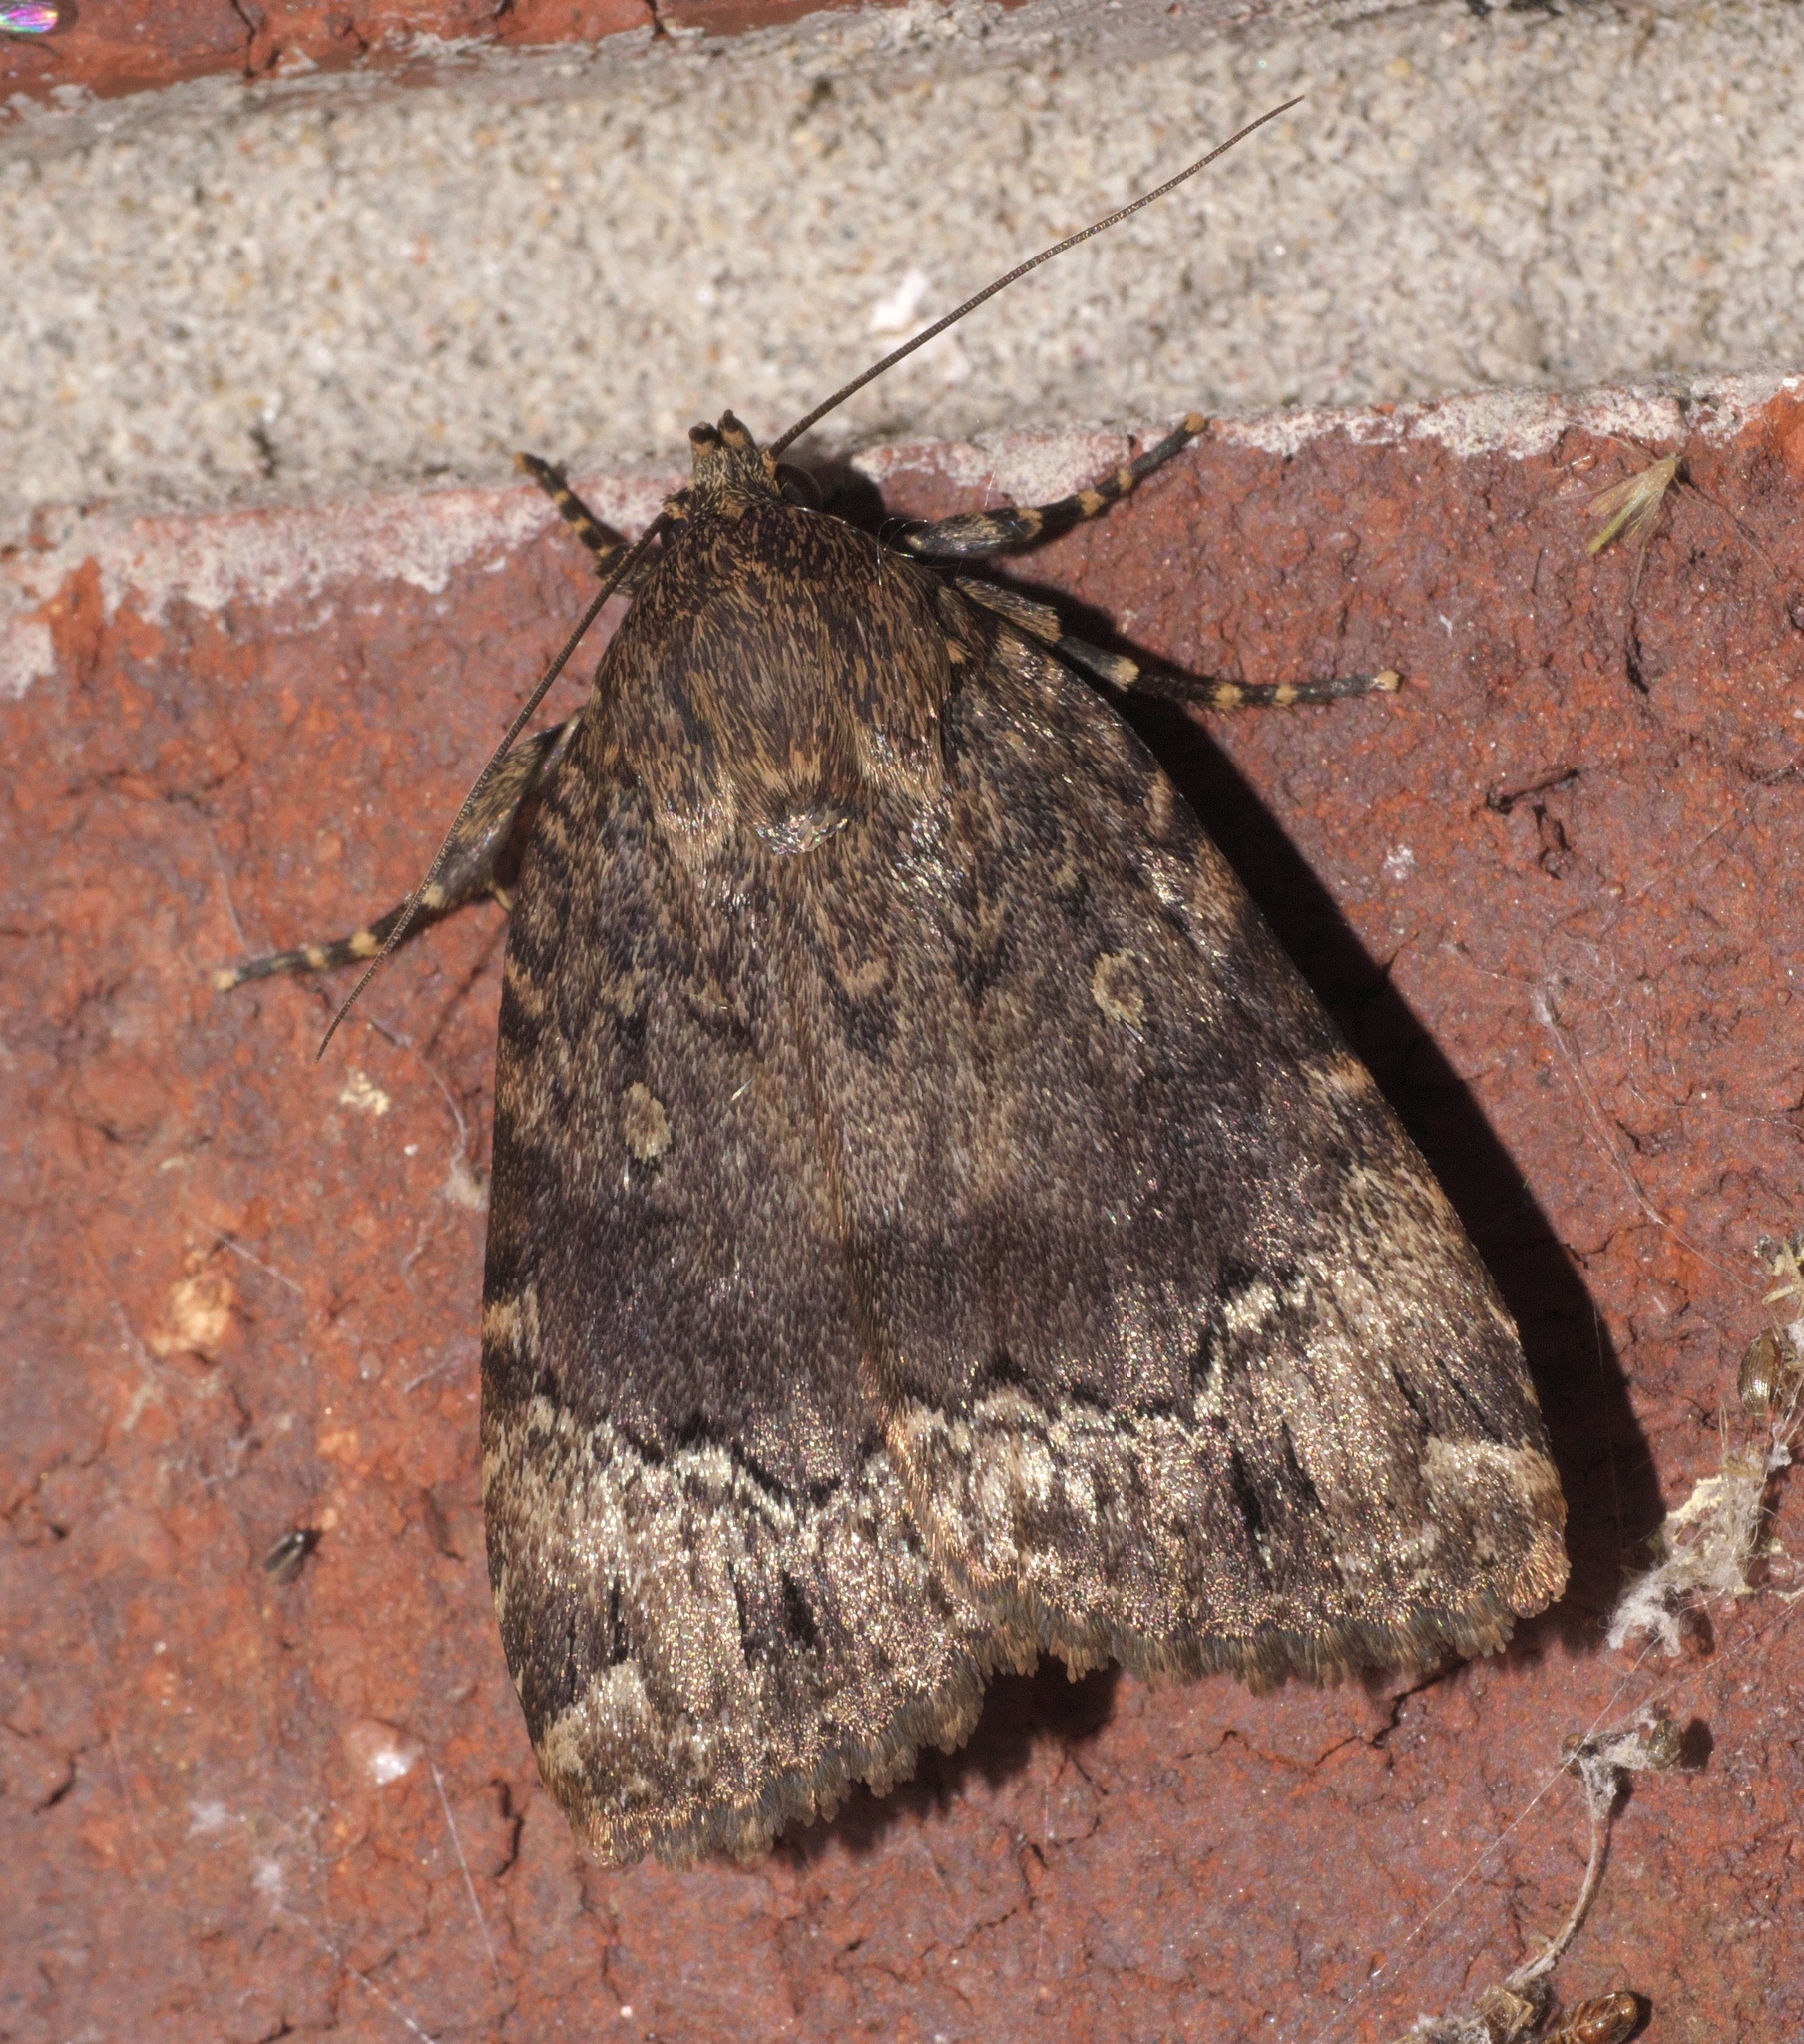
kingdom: Animalia
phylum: Arthropoda
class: Insecta
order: Lepidoptera
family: Noctuidae
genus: Amphipyra
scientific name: Amphipyra pyramidoides
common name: American copper underwing
